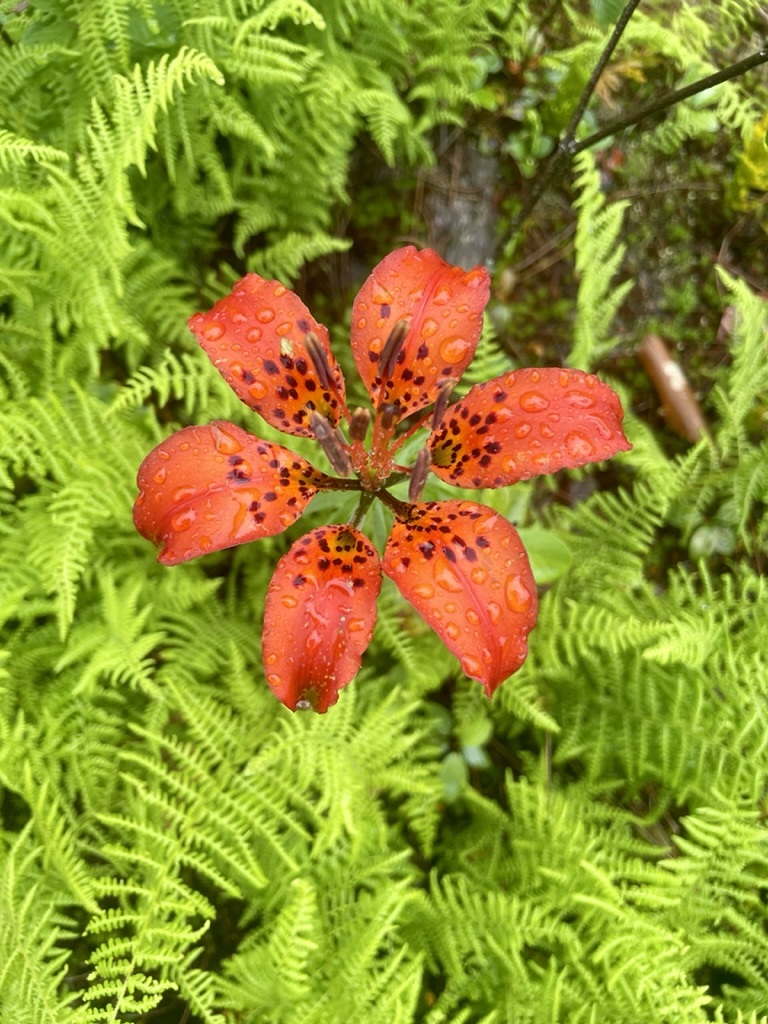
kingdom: Plantae
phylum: Tracheophyta
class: Liliopsida
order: Liliales
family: Liliaceae
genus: Lilium
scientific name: Lilium philadelphicum
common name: Red lily
